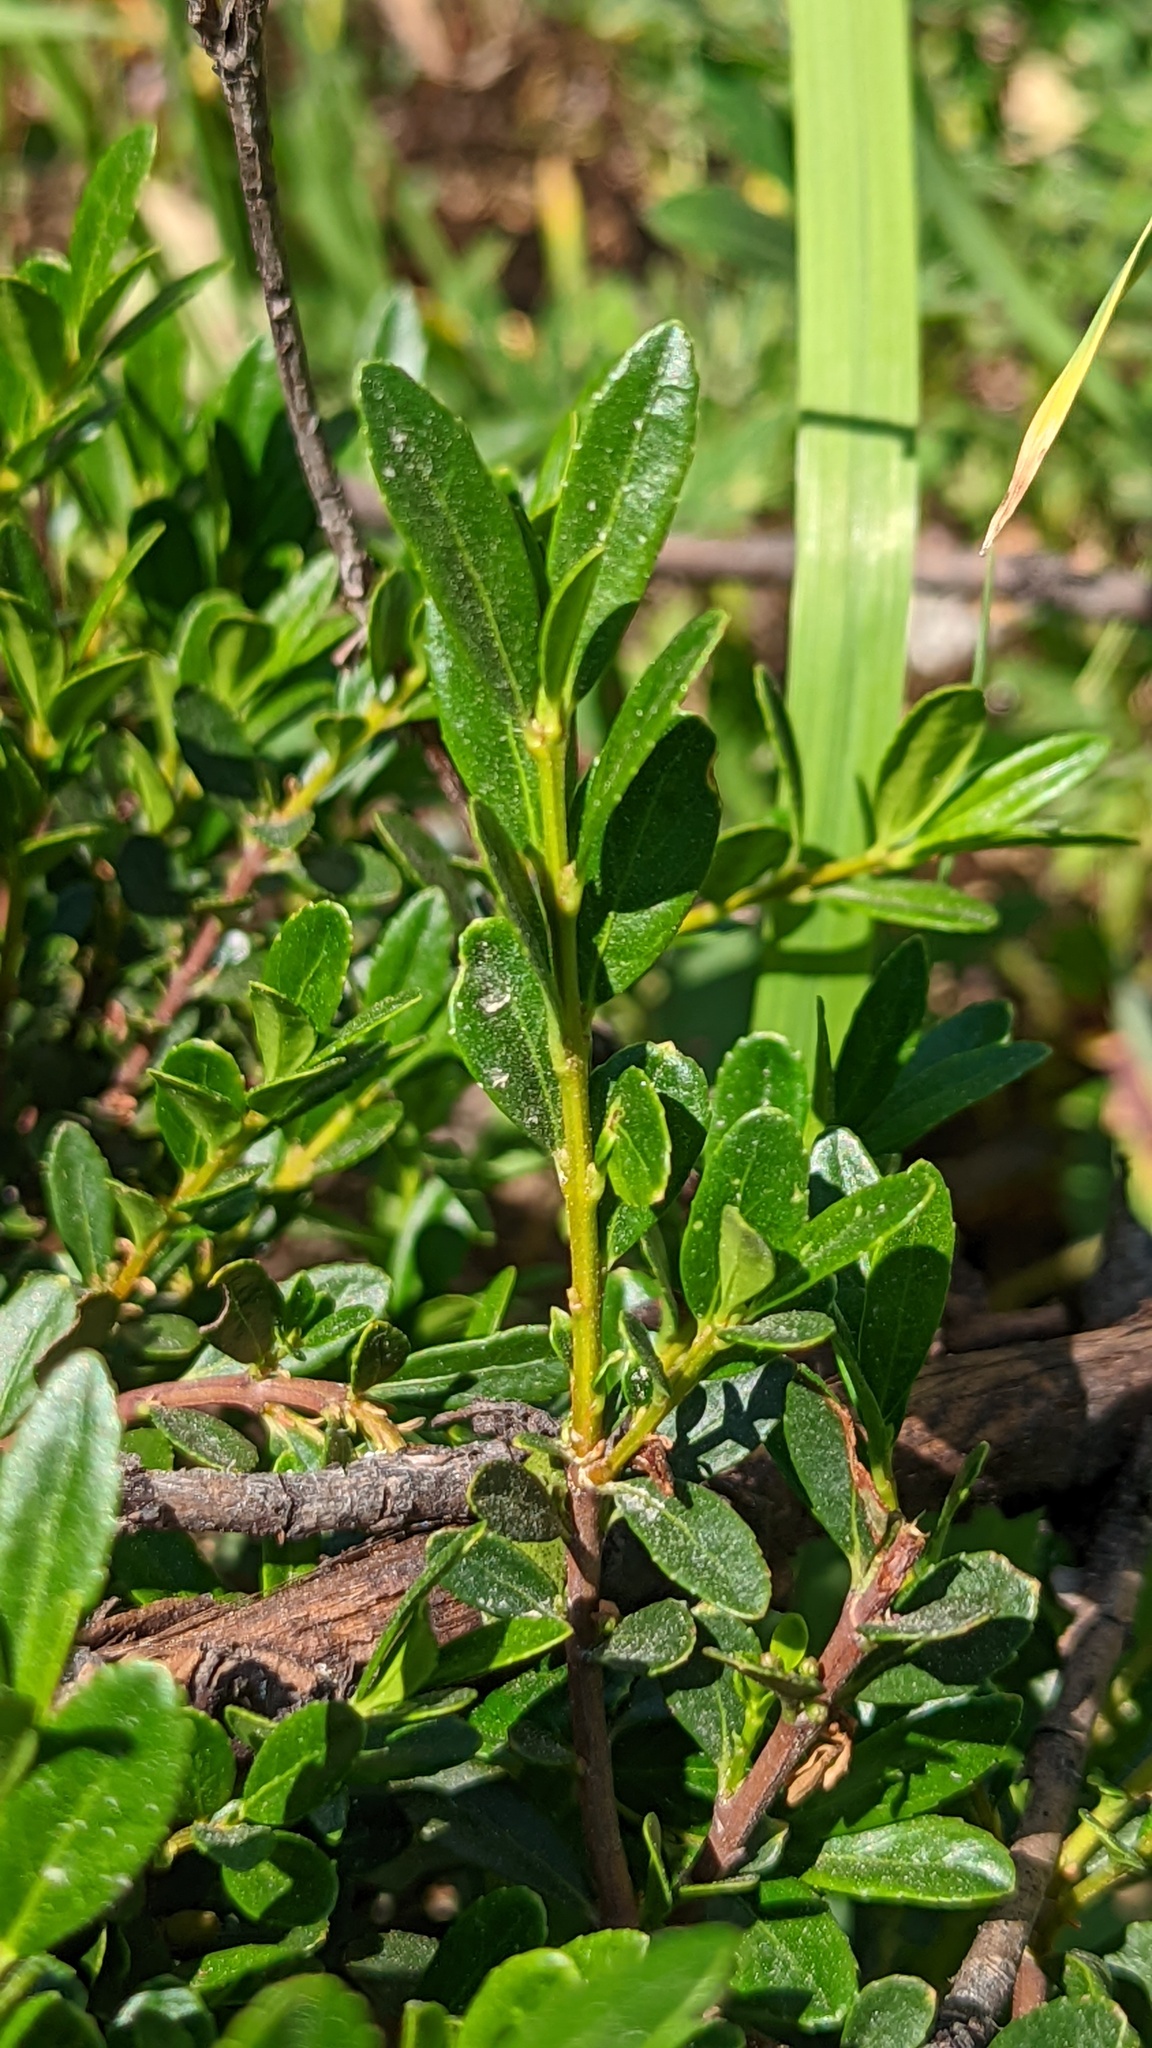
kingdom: Plantae
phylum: Tracheophyta
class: Magnoliopsida
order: Celastrales
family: Celastraceae
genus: Paxistima
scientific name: Paxistima myrsinites
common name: Mountain-lover
